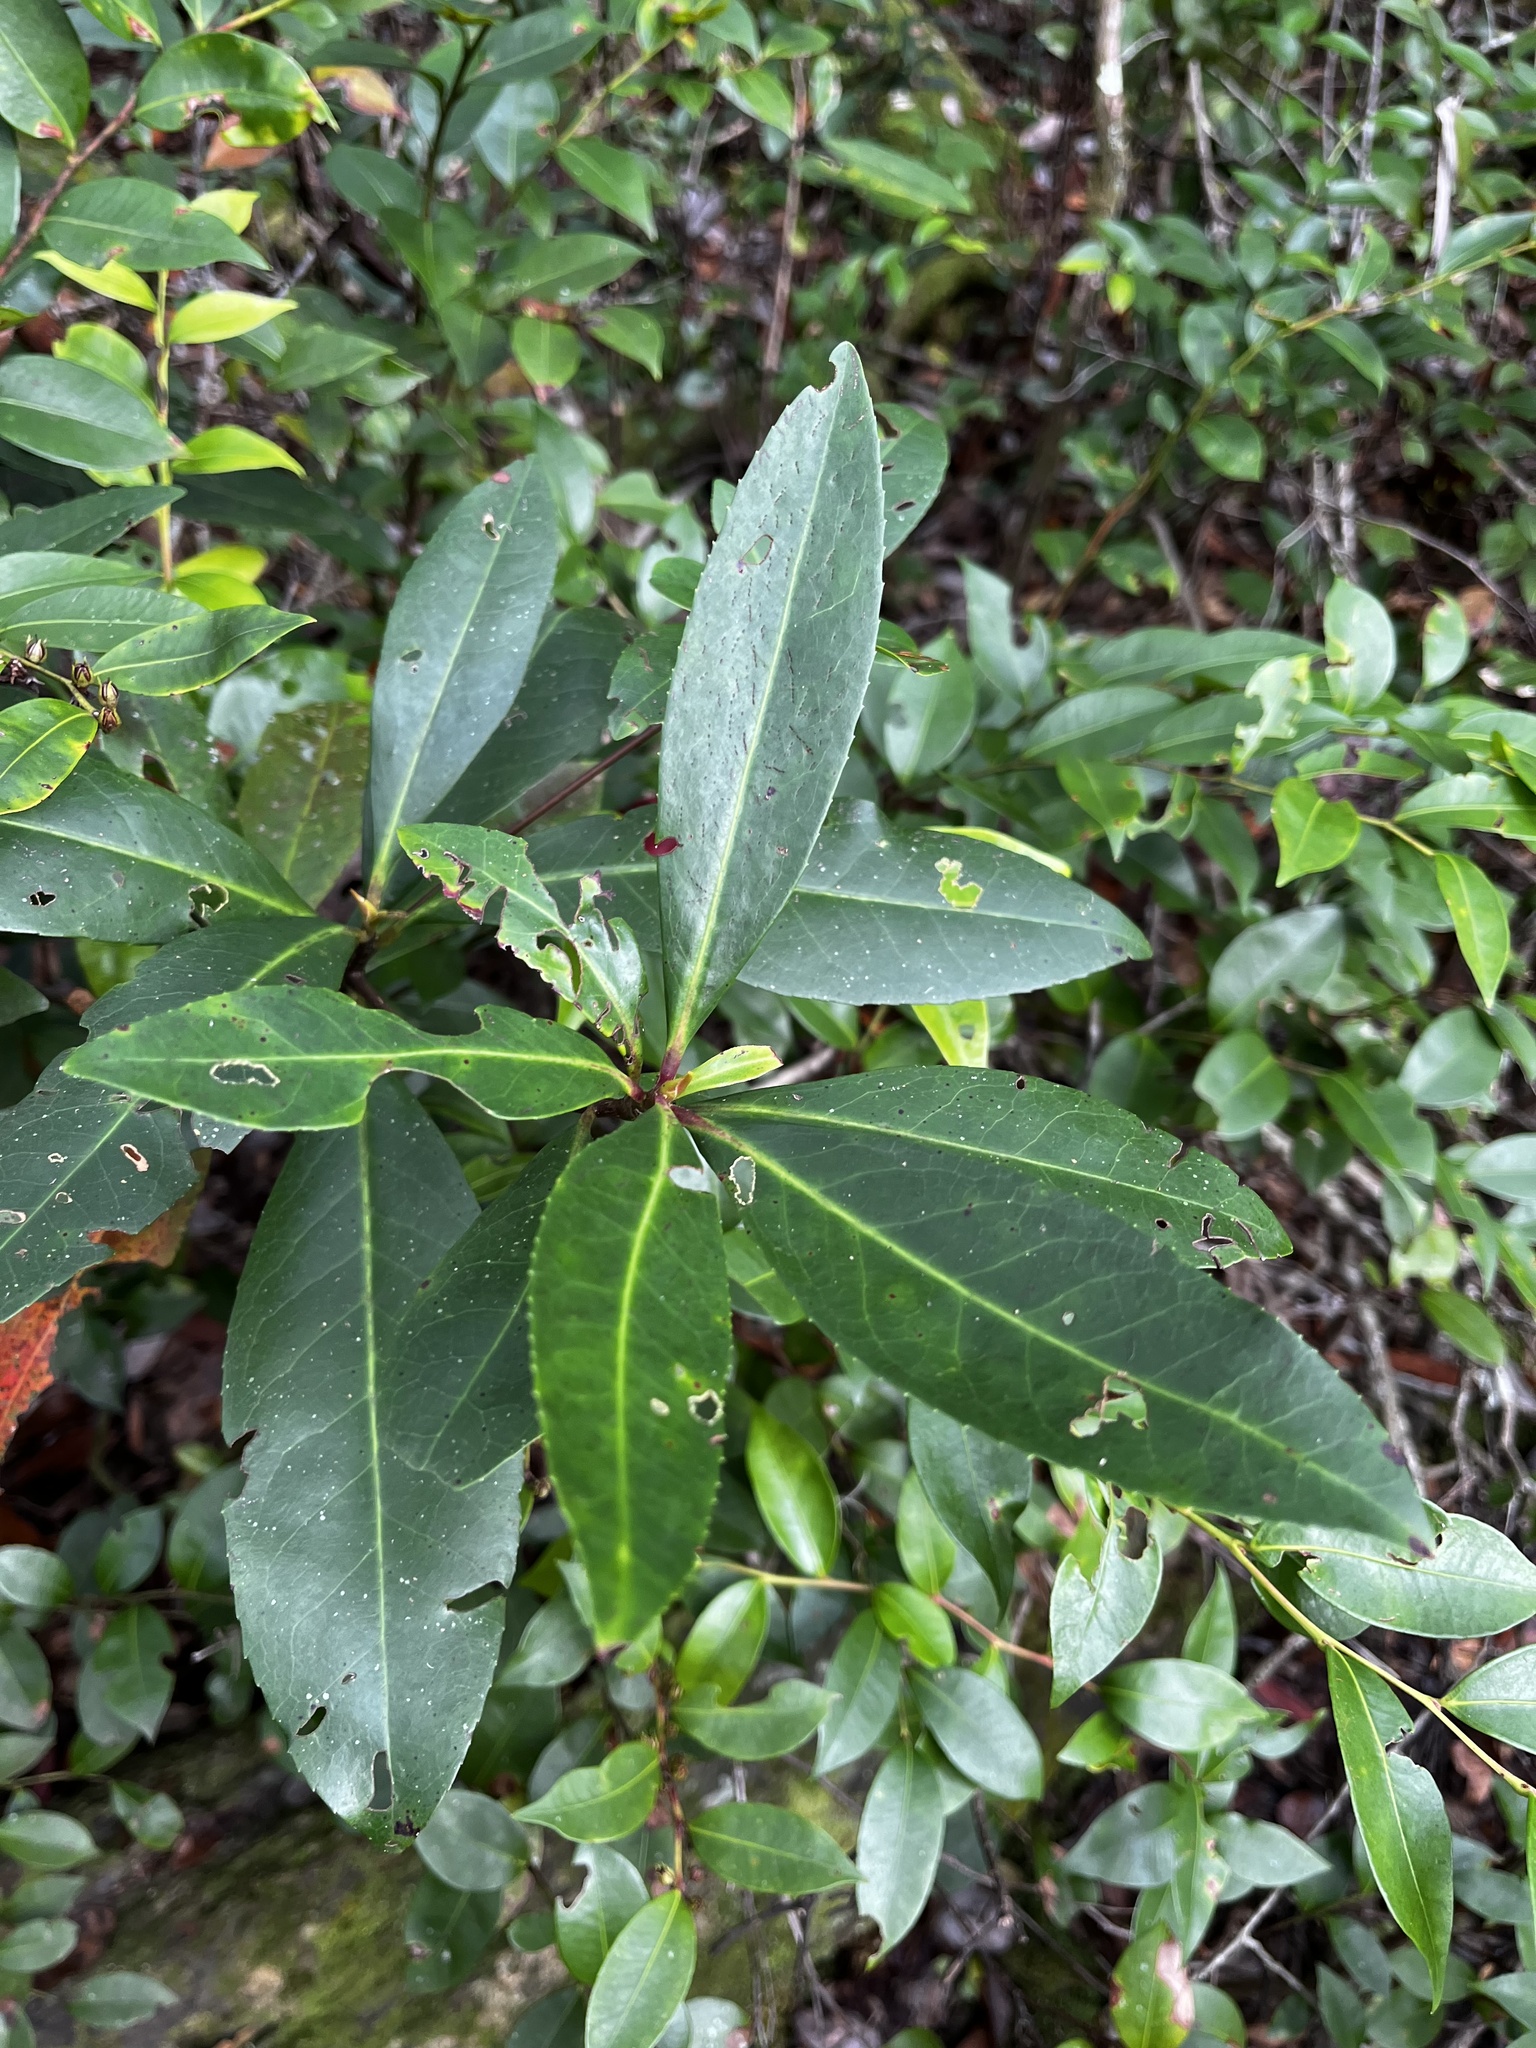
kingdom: Plantae
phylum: Tracheophyta
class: Magnoliopsida
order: Ericales
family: Theaceae
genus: Gordonia
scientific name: Gordonia lasianthus
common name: Loblolly bay
